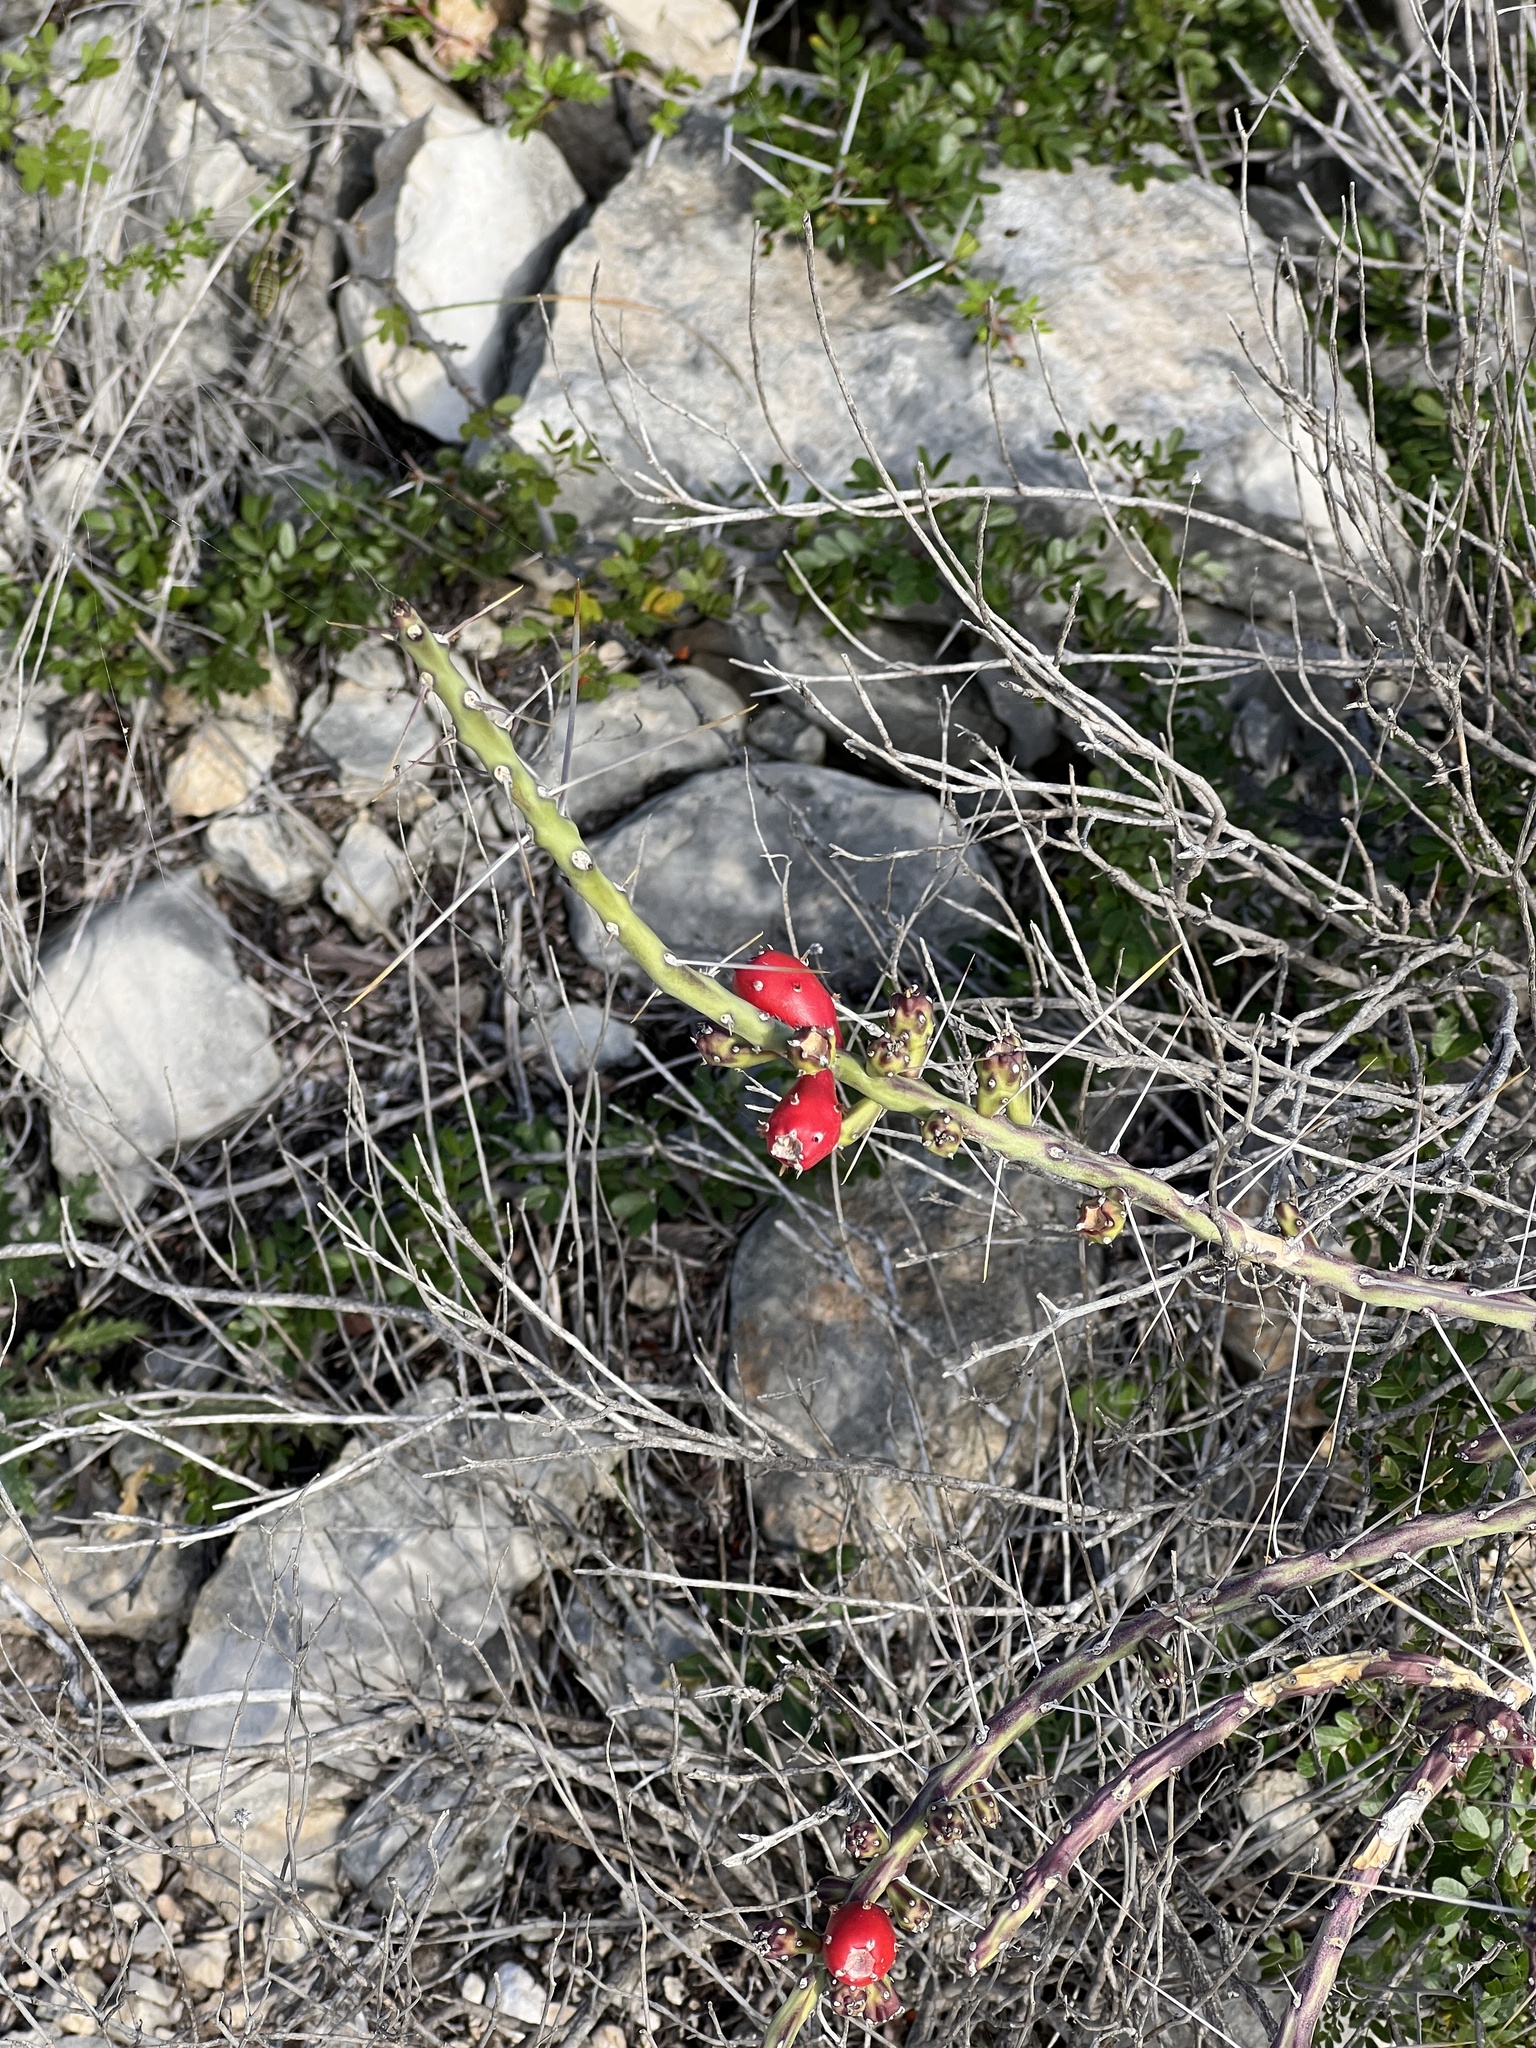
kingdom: Plantae
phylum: Tracheophyta
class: Magnoliopsida
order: Caryophyllales
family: Cactaceae
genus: Cylindropuntia
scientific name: Cylindropuntia leptocaulis
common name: Christmas cactus
